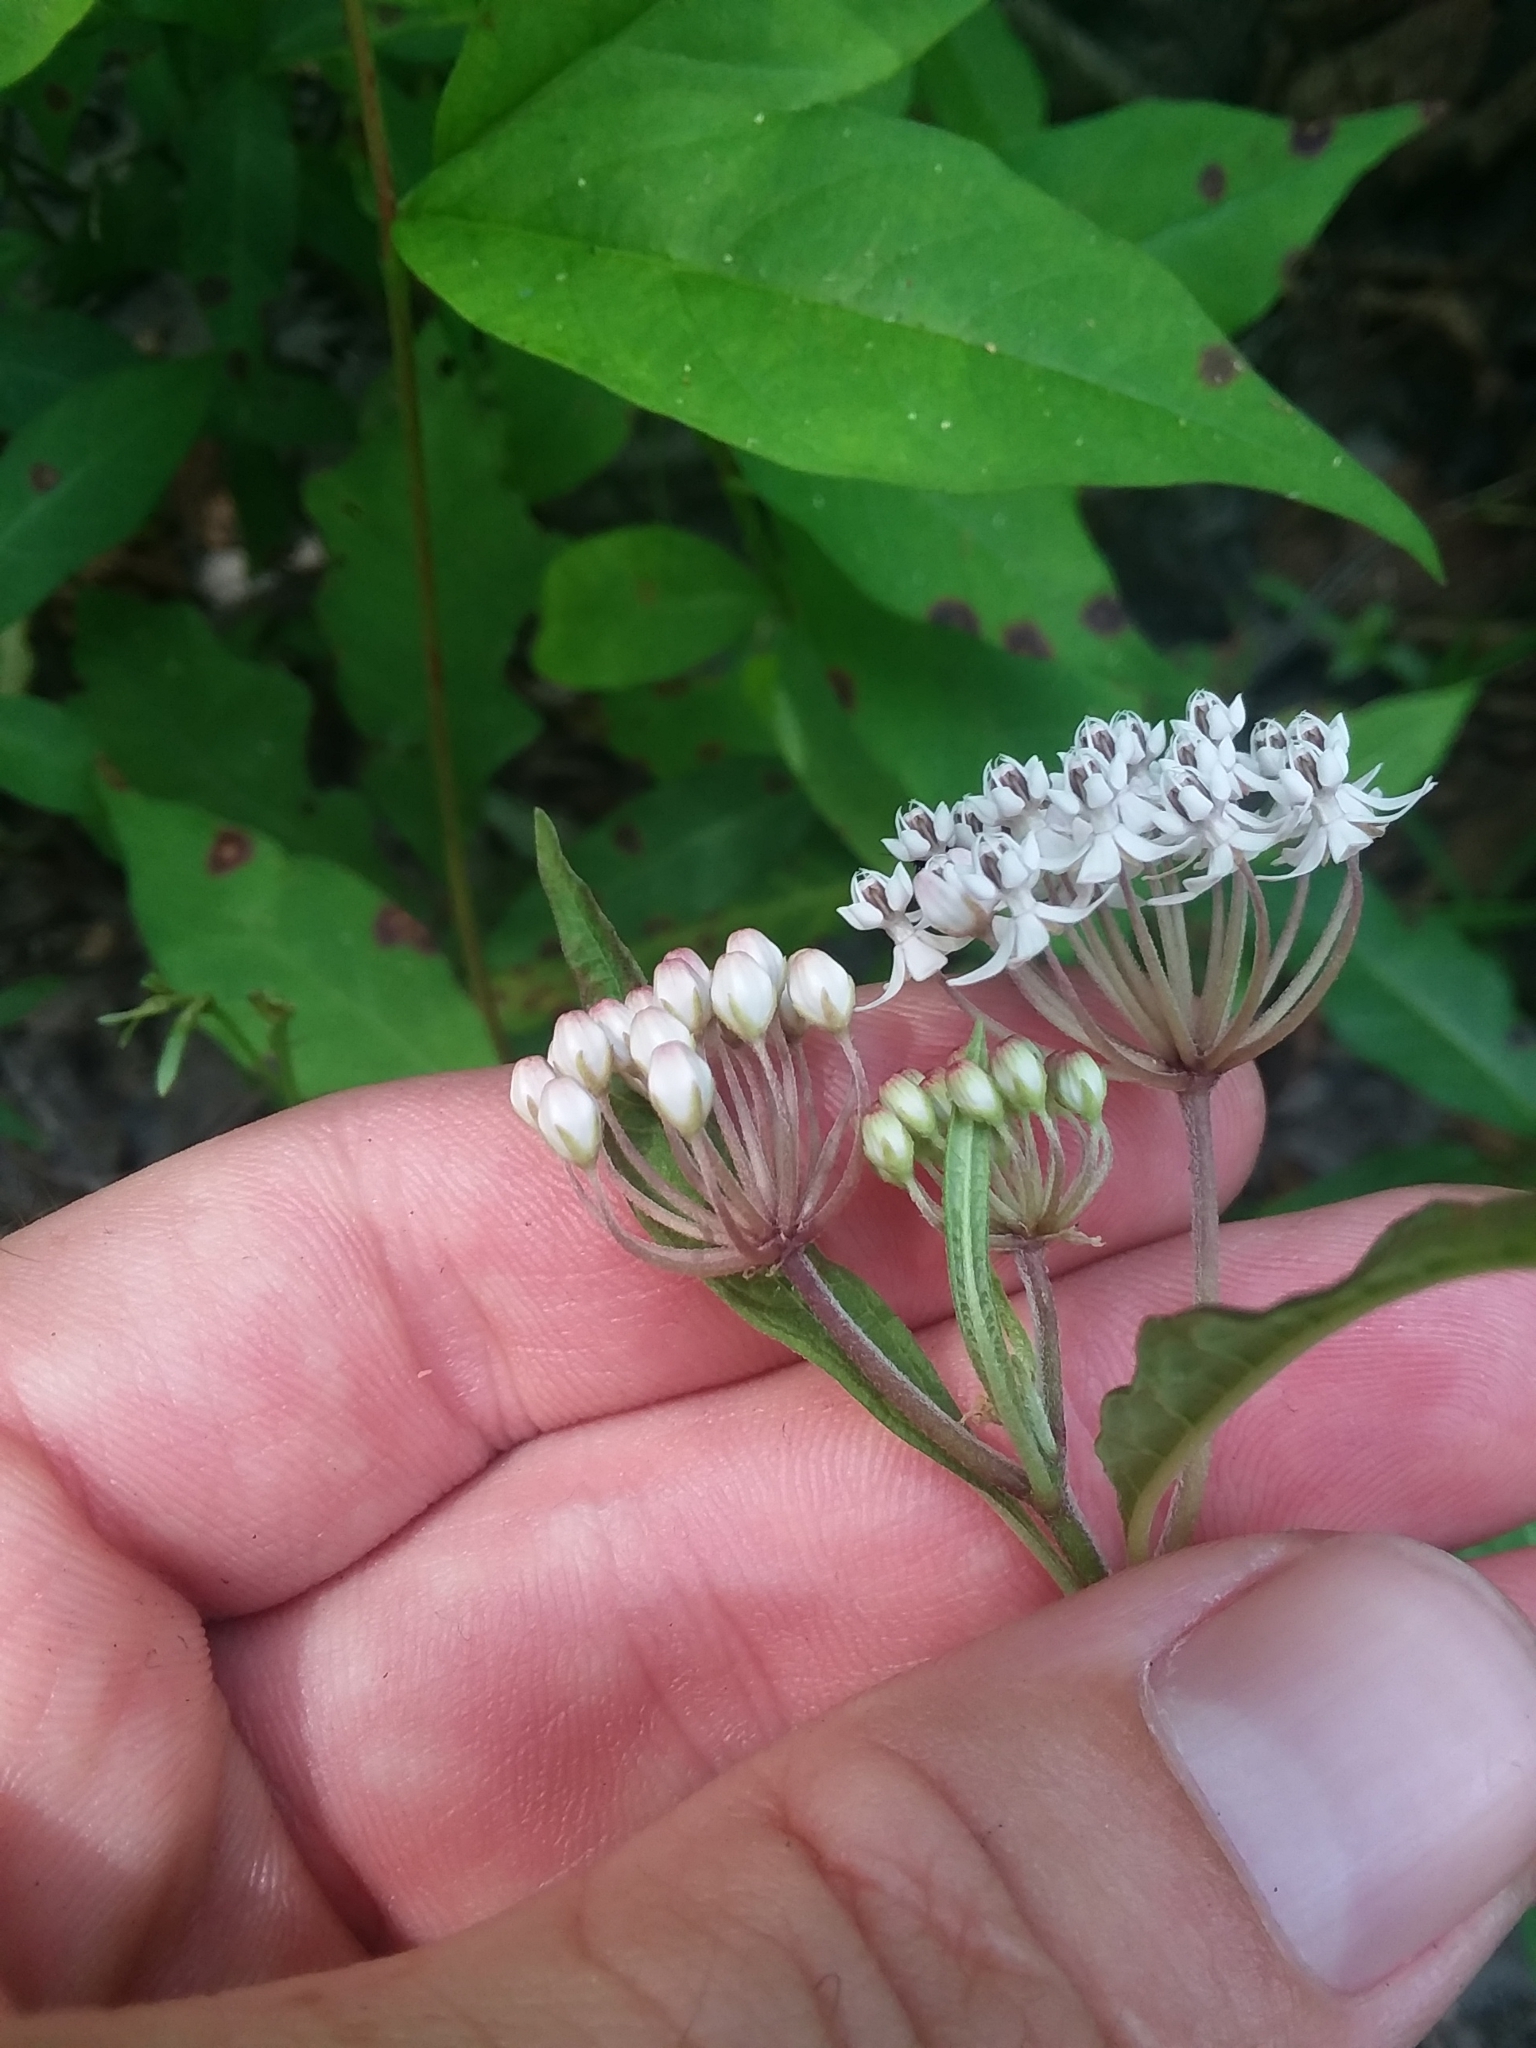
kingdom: Plantae
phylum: Tracheophyta
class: Magnoliopsida
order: Gentianales
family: Apocynaceae
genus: Asclepias
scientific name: Asclepias perennis
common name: Smooth-seed milkweed
